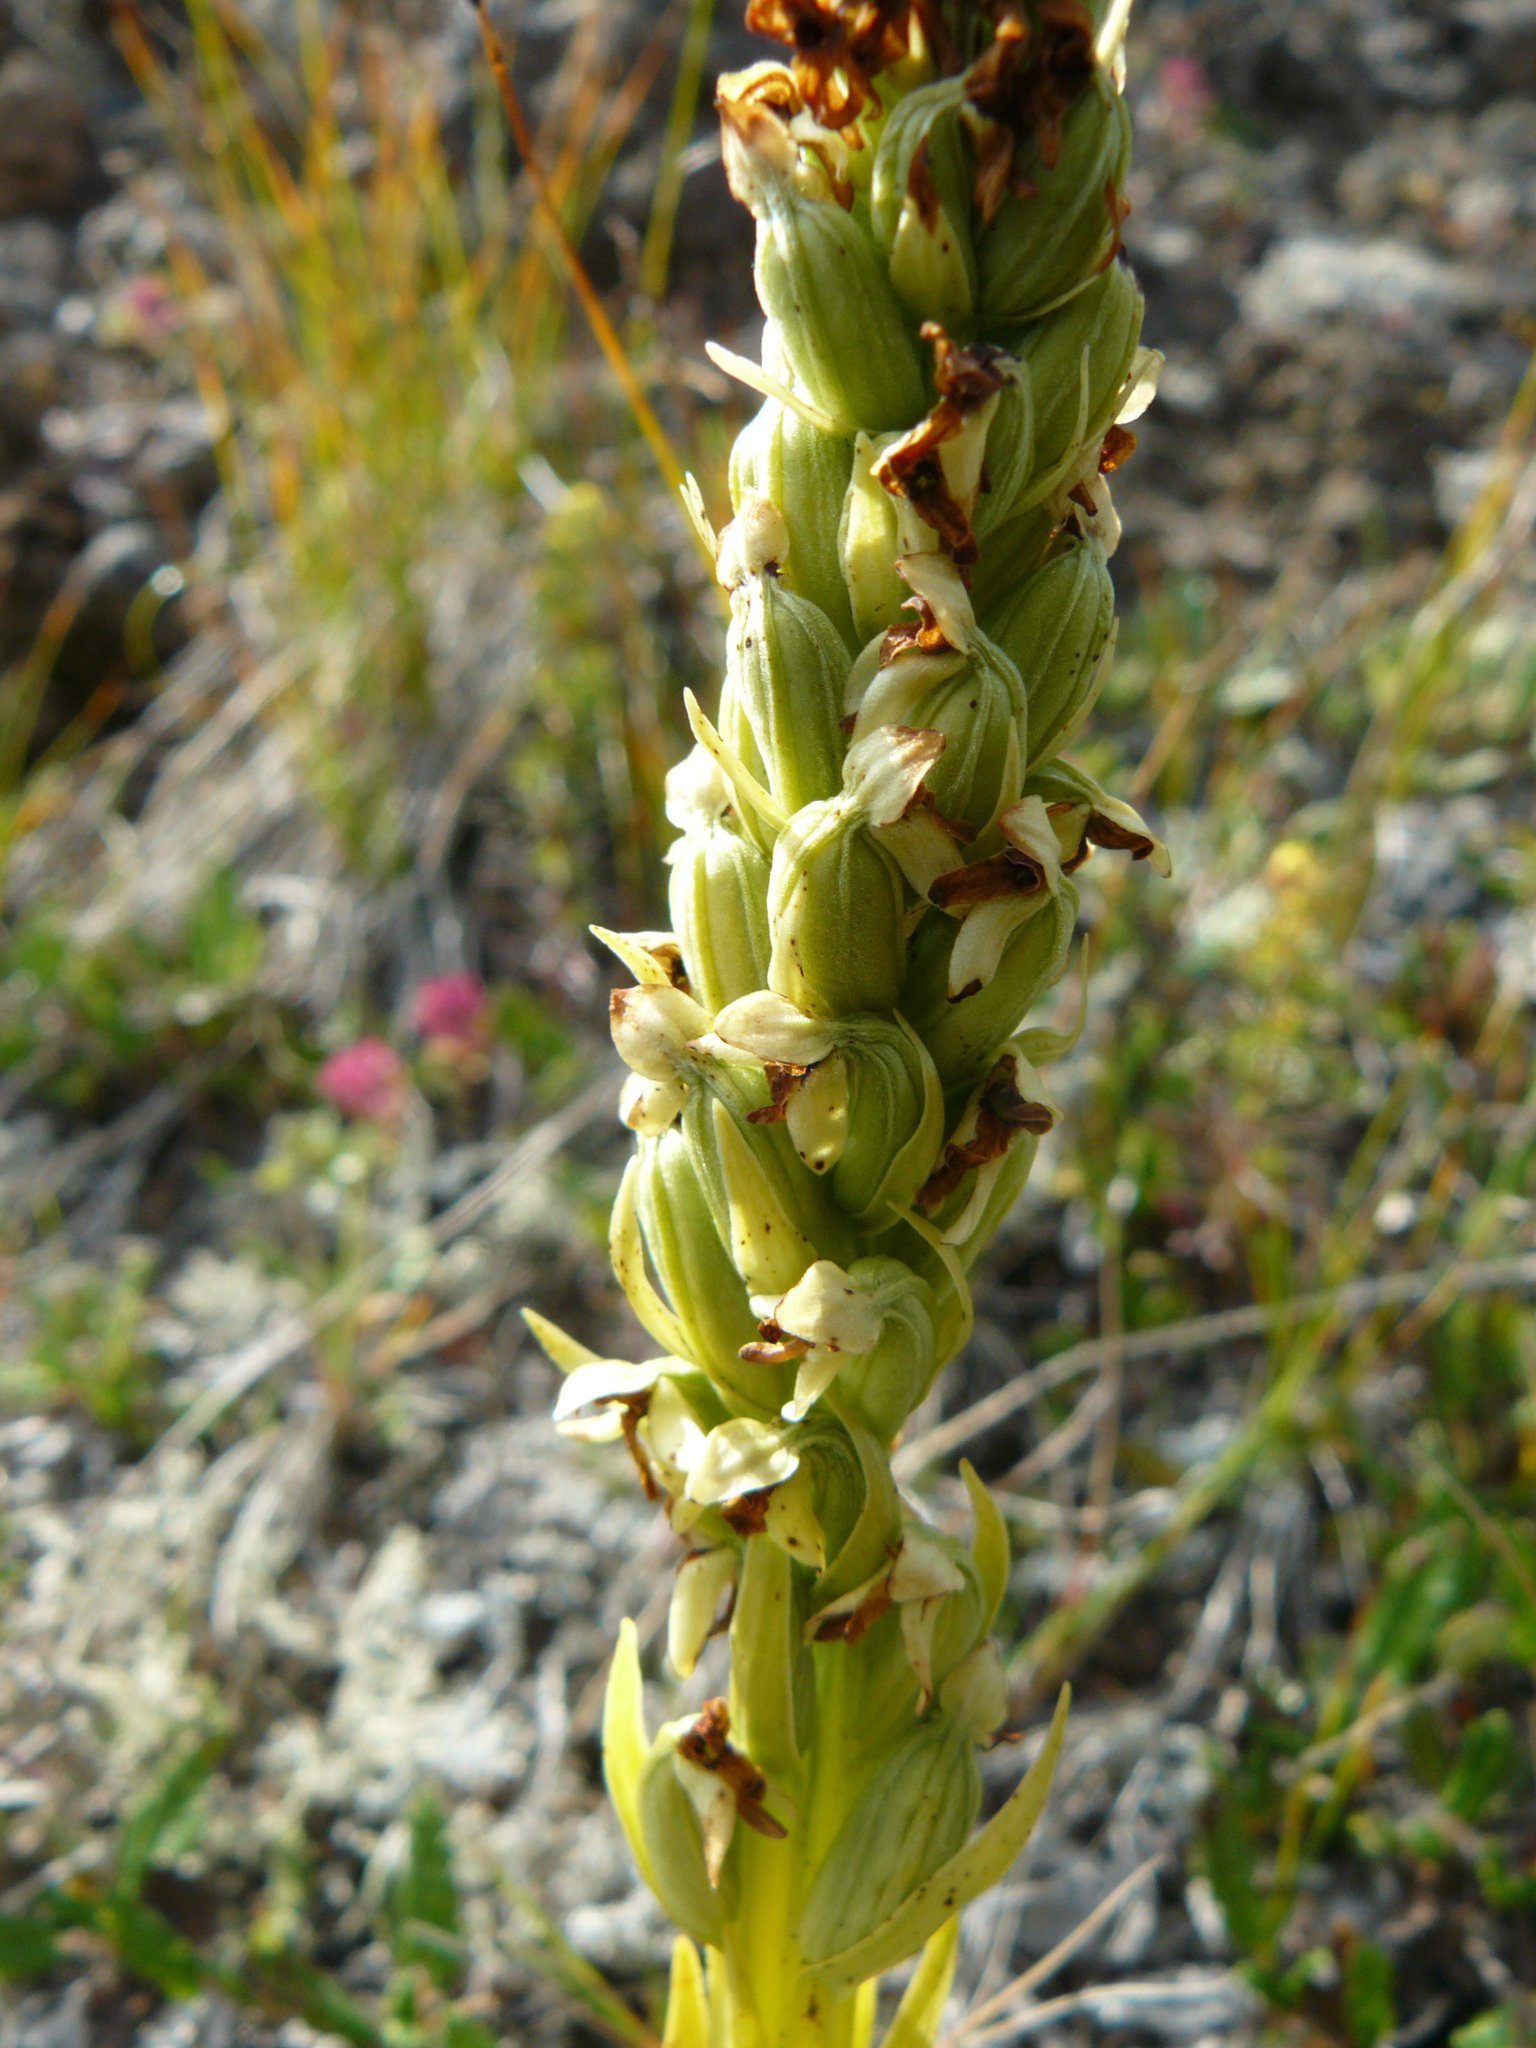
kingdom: Plantae
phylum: Tracheophyta
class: Liliopsida
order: Asparagales
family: Orchidaceae
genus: Platanthera
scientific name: Platanthera hyperborea
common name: Northern green orchid
